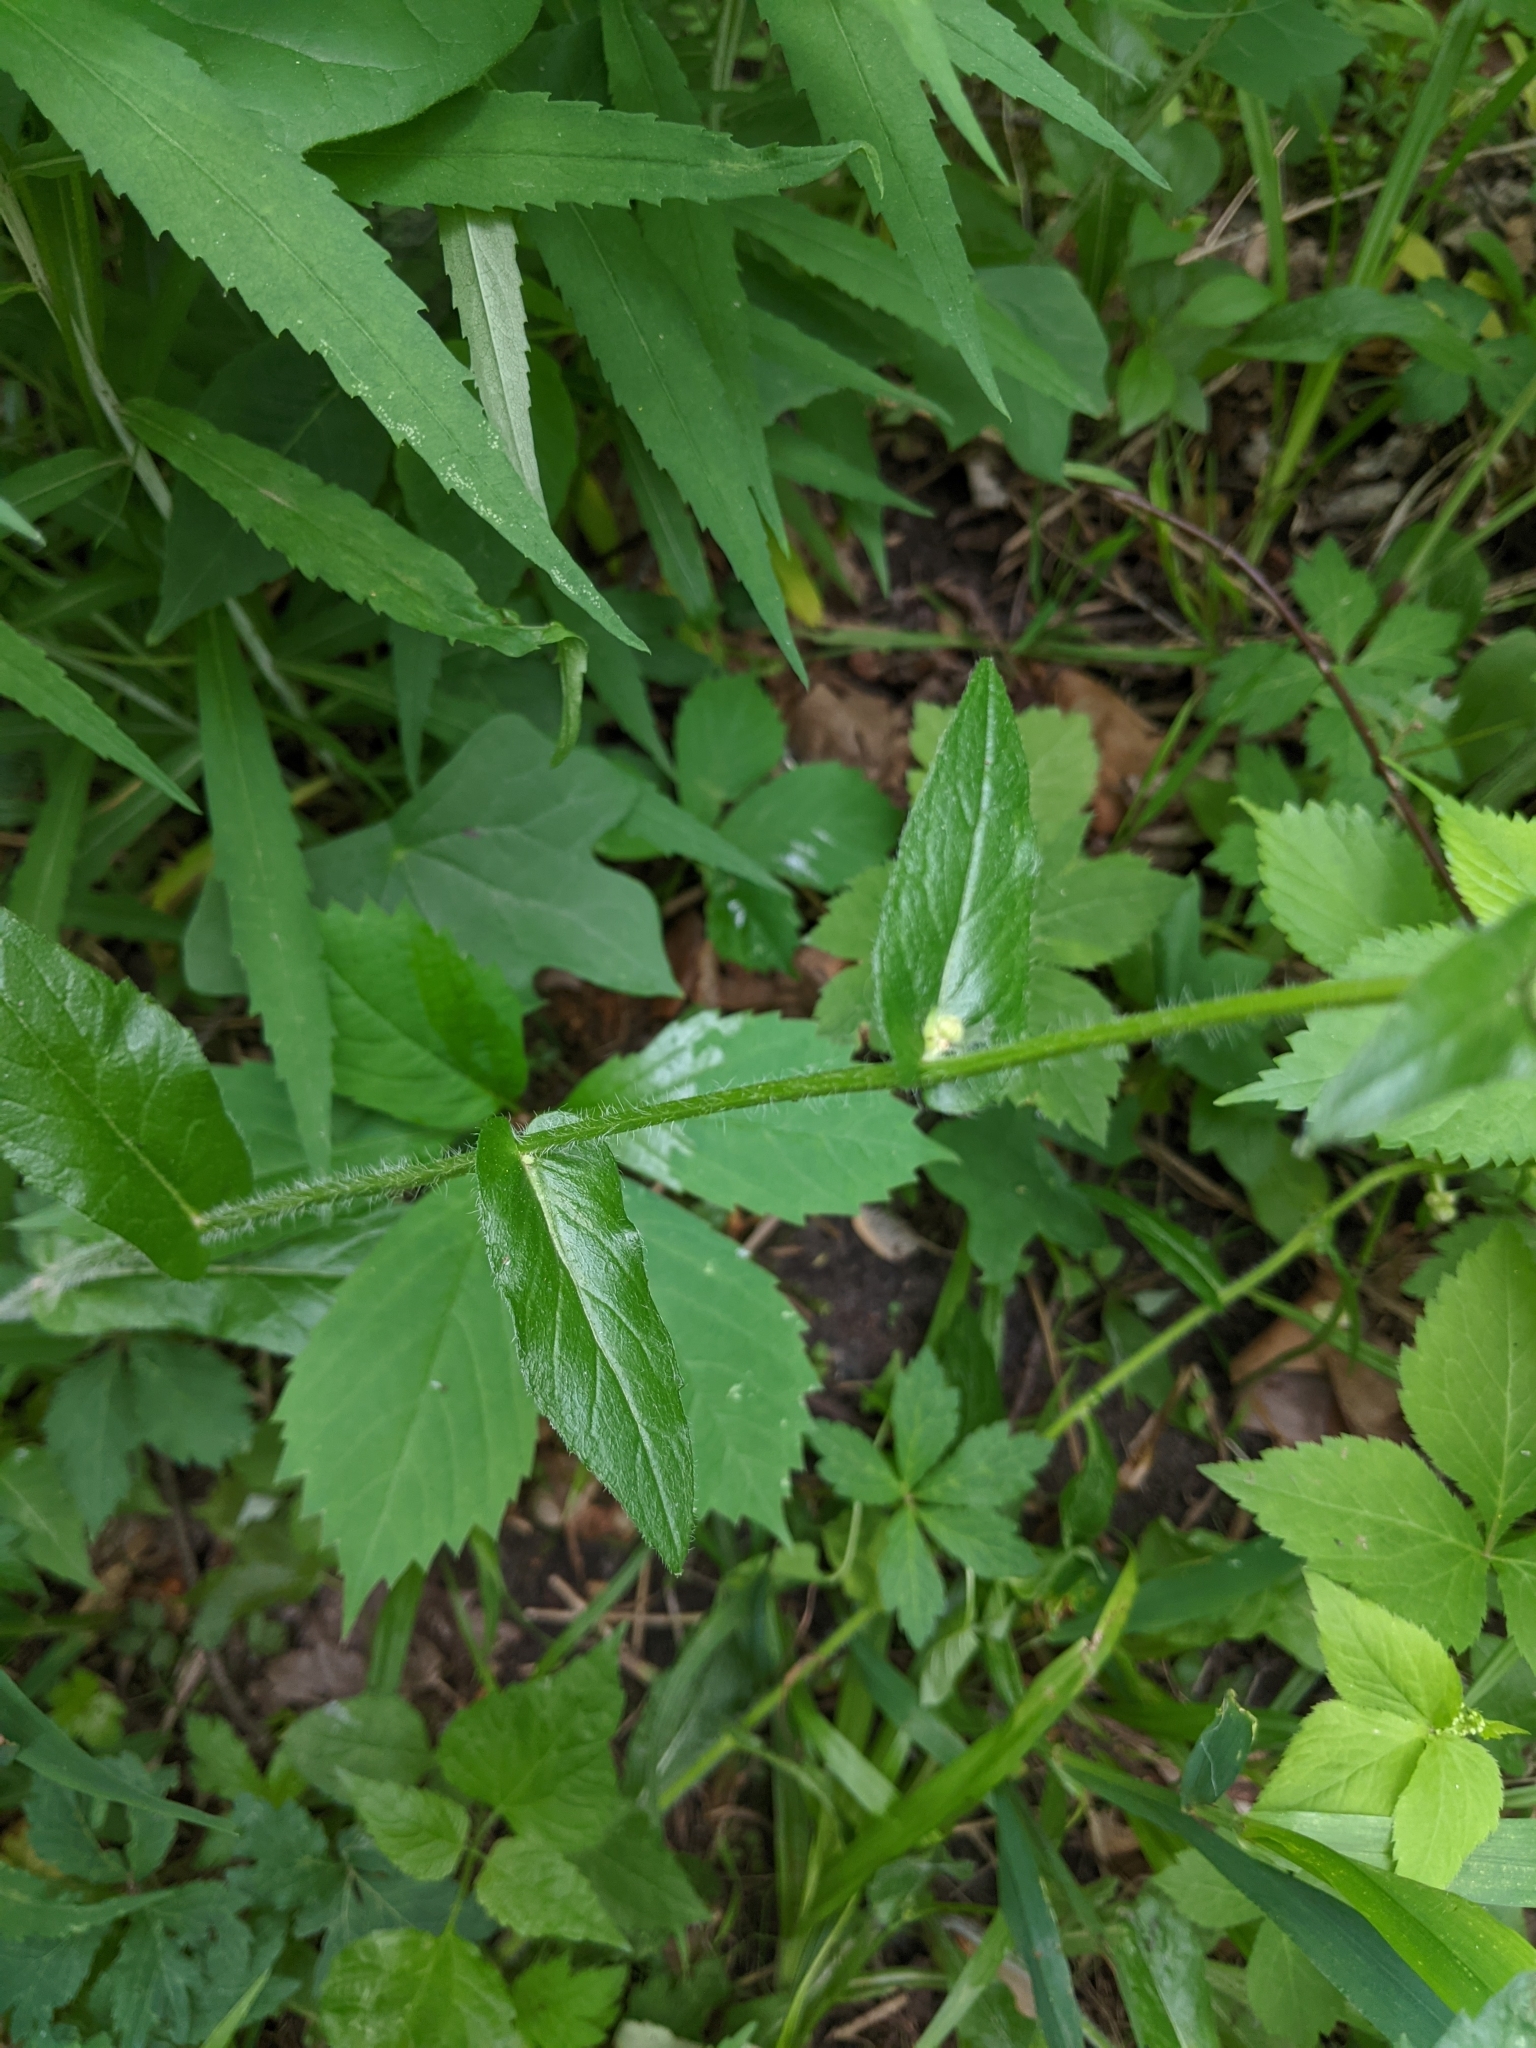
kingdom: Plantae
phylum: Tracheophyta
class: Magnoliopsida
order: Asterales
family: Asteraceae
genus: Erigeron
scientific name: Erigeron philadelphicus
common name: Robin's-plantain
